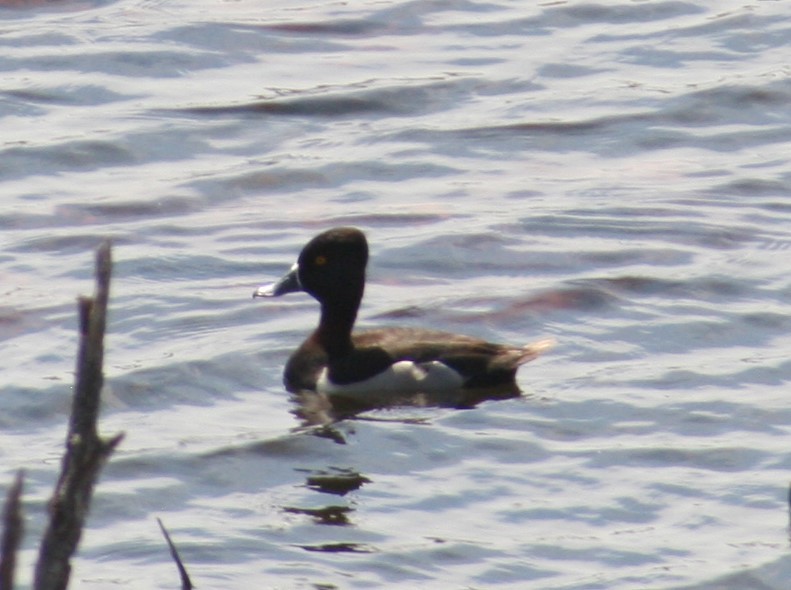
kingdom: Animalia
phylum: Chordata
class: Aves
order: Anseriformes
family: Anatidae
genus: Aythya
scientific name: Aythya collaris
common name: Ring-necked duck
